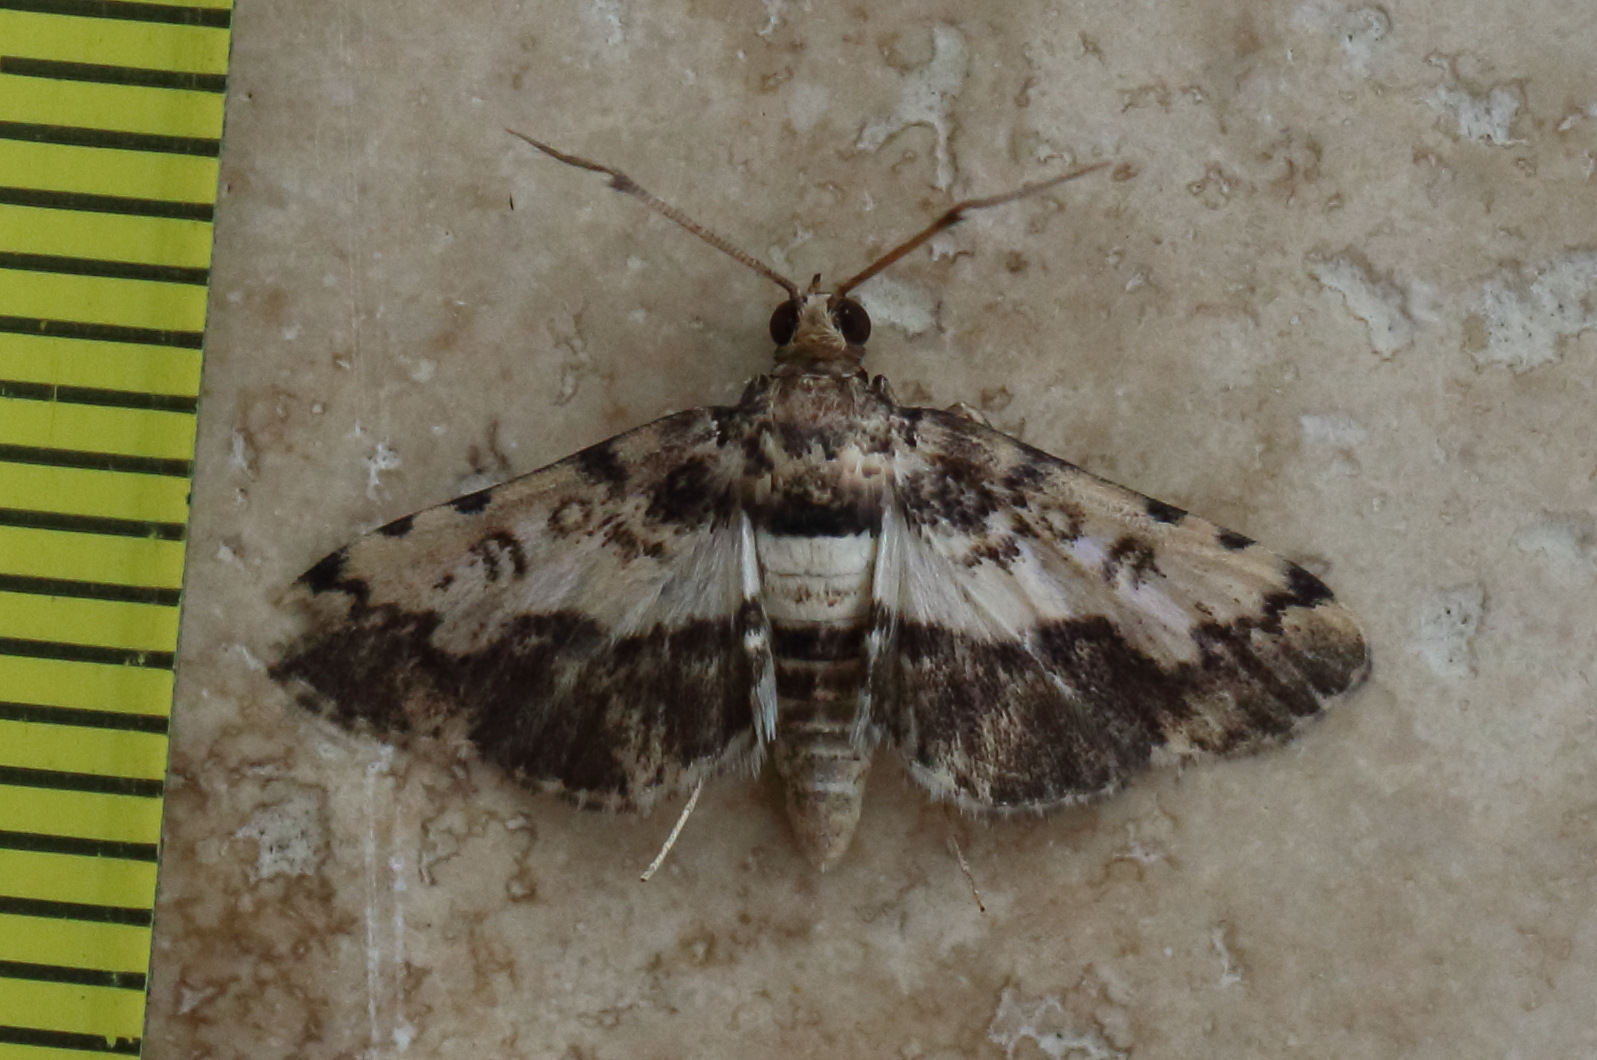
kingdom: Animalia
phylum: Arthropoda
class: Insecta
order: Lepidoptera
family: Crambidae
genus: Nacoleia
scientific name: Nacoleia amphicedalis
